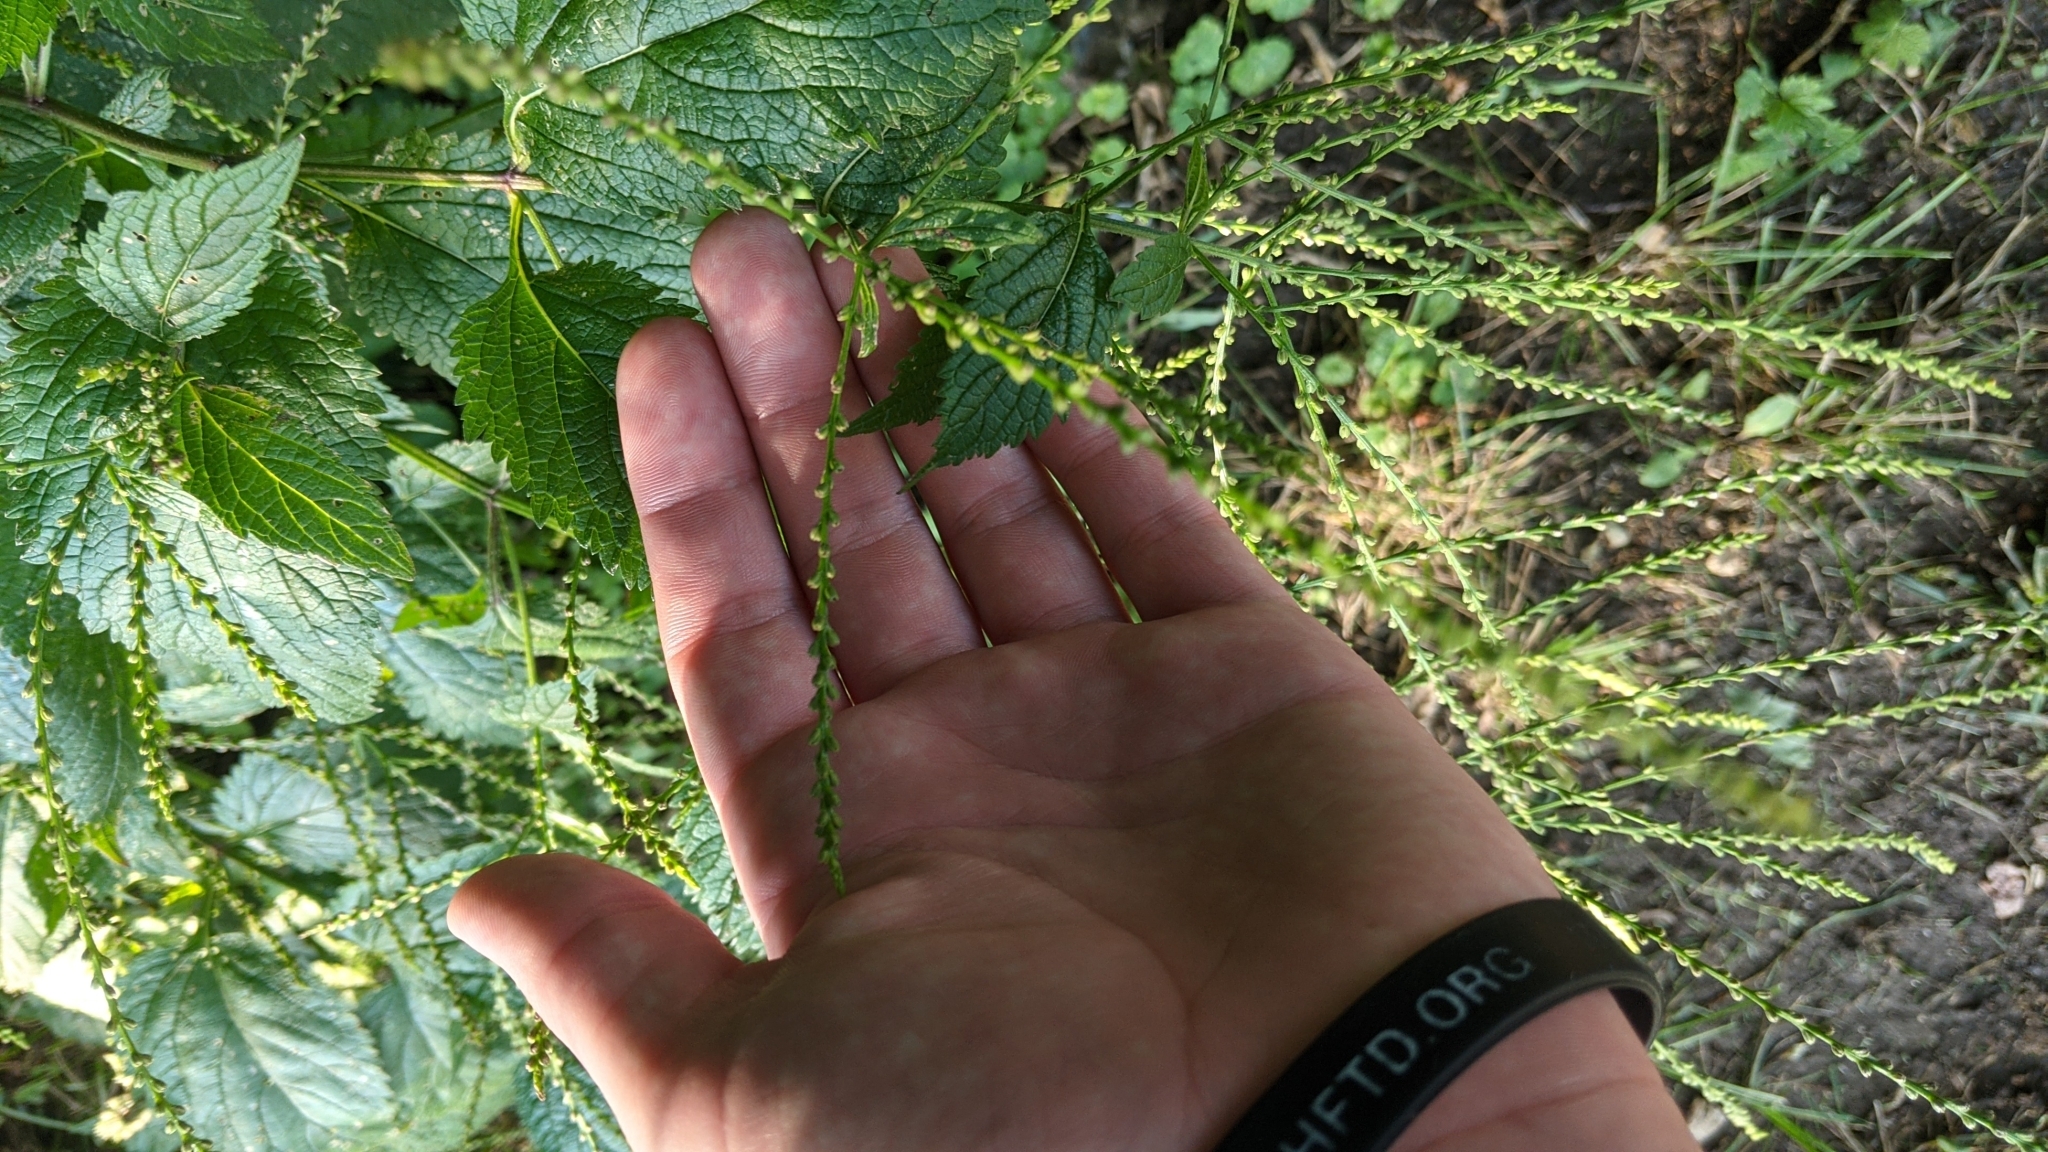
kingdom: Plantae
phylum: Tracheophyta
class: Magnoliopsida
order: Lamiales
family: Verbenaceae
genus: Verbena
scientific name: Verbena urticifolia
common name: Nettle-leaved vervain
